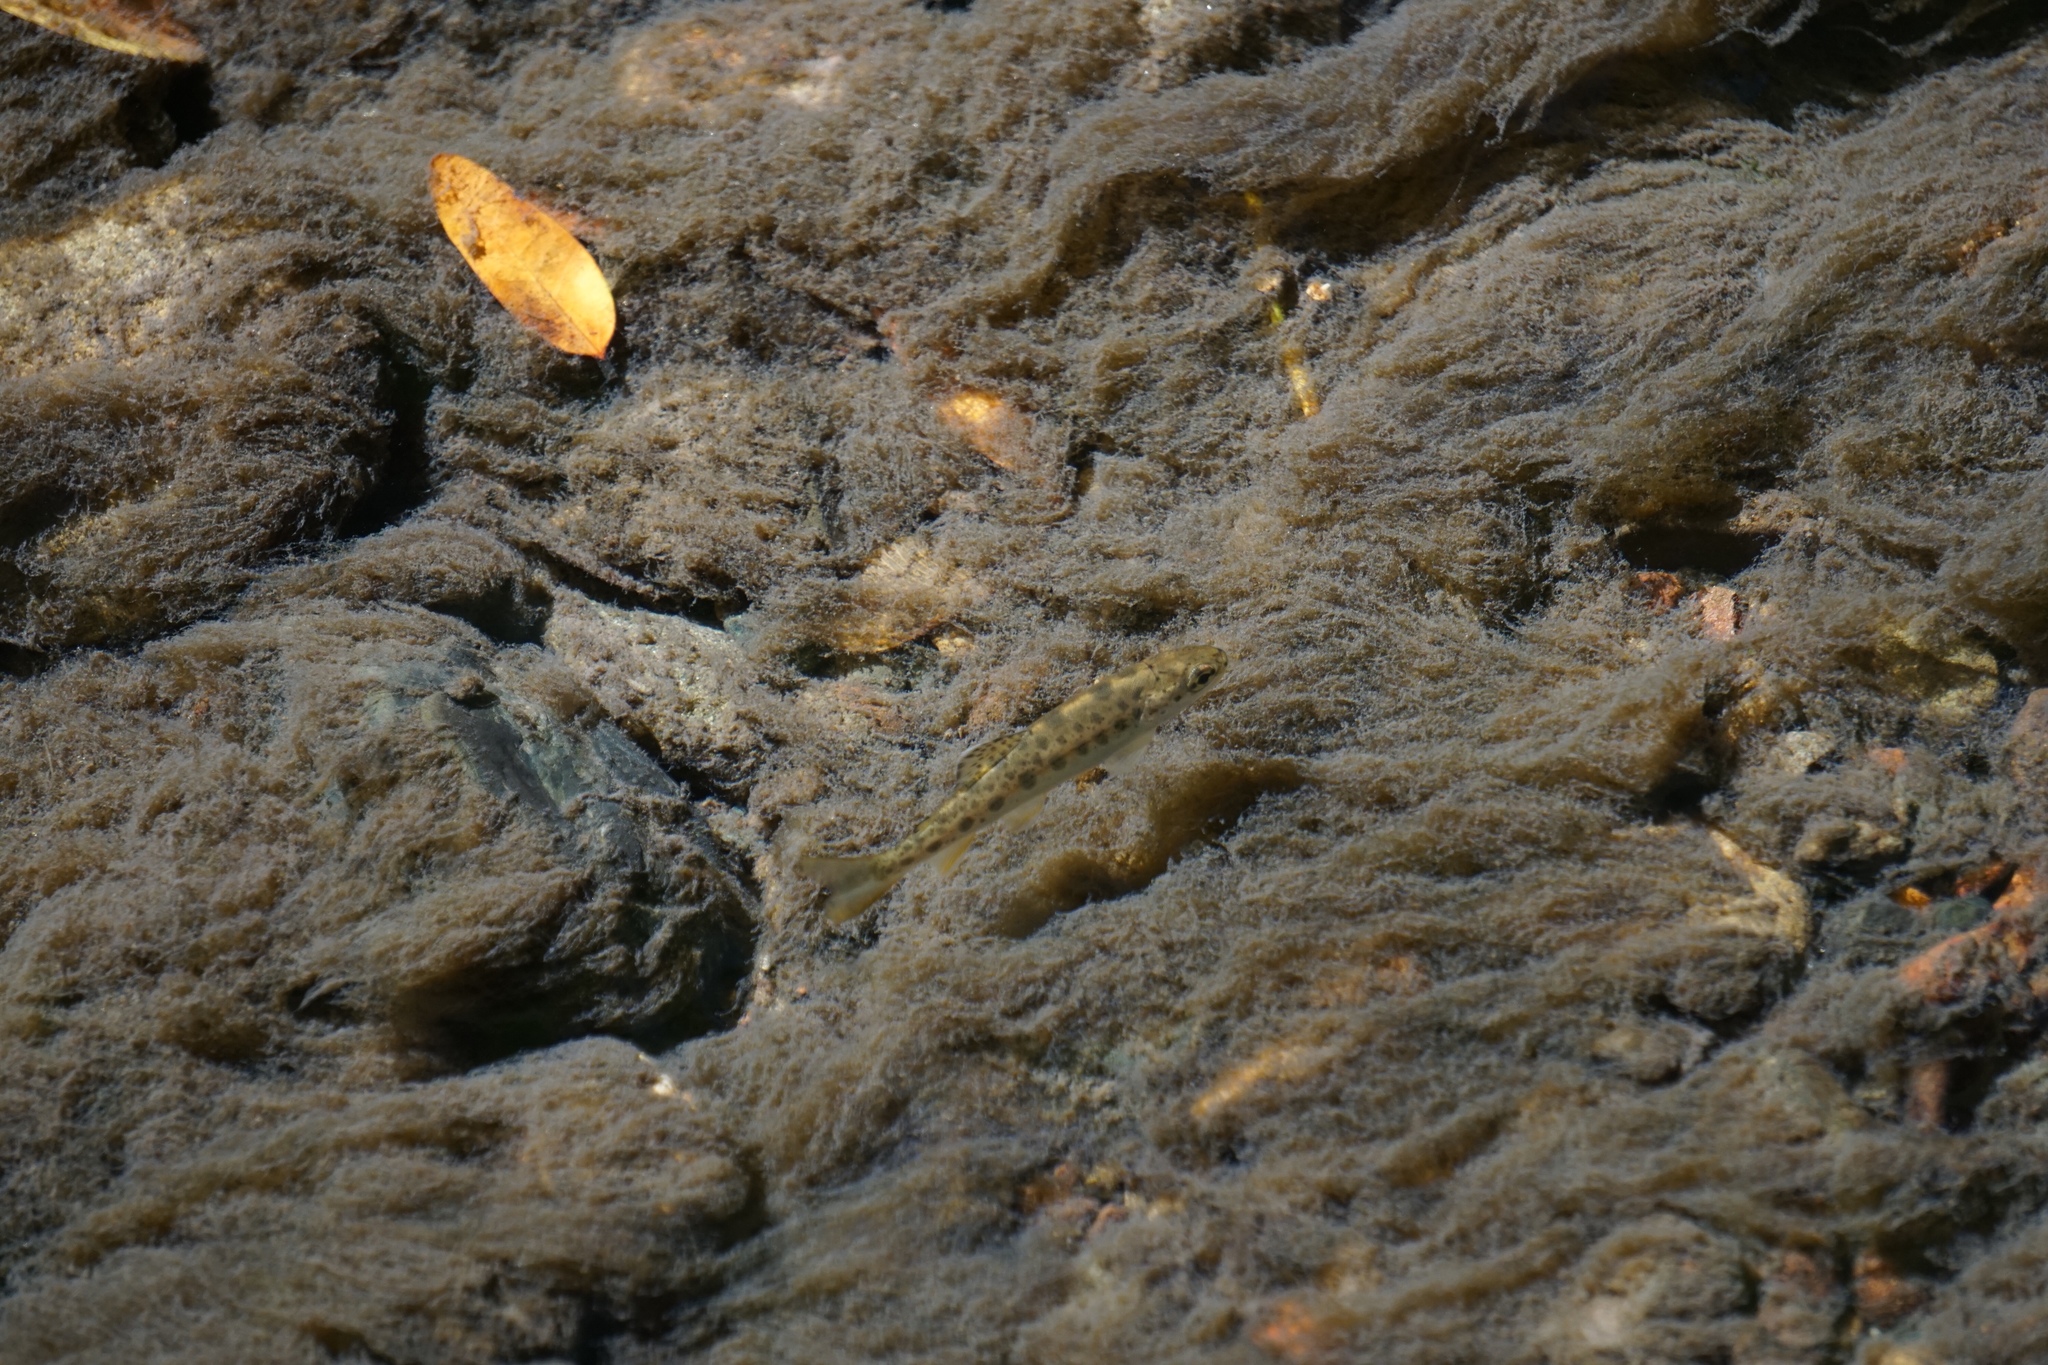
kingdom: Animalia
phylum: Chordata
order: Salmoniformes
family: Salmonidae
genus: Oncorhynchus
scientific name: Oncorhynchus mykiss
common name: Rainbow trout
